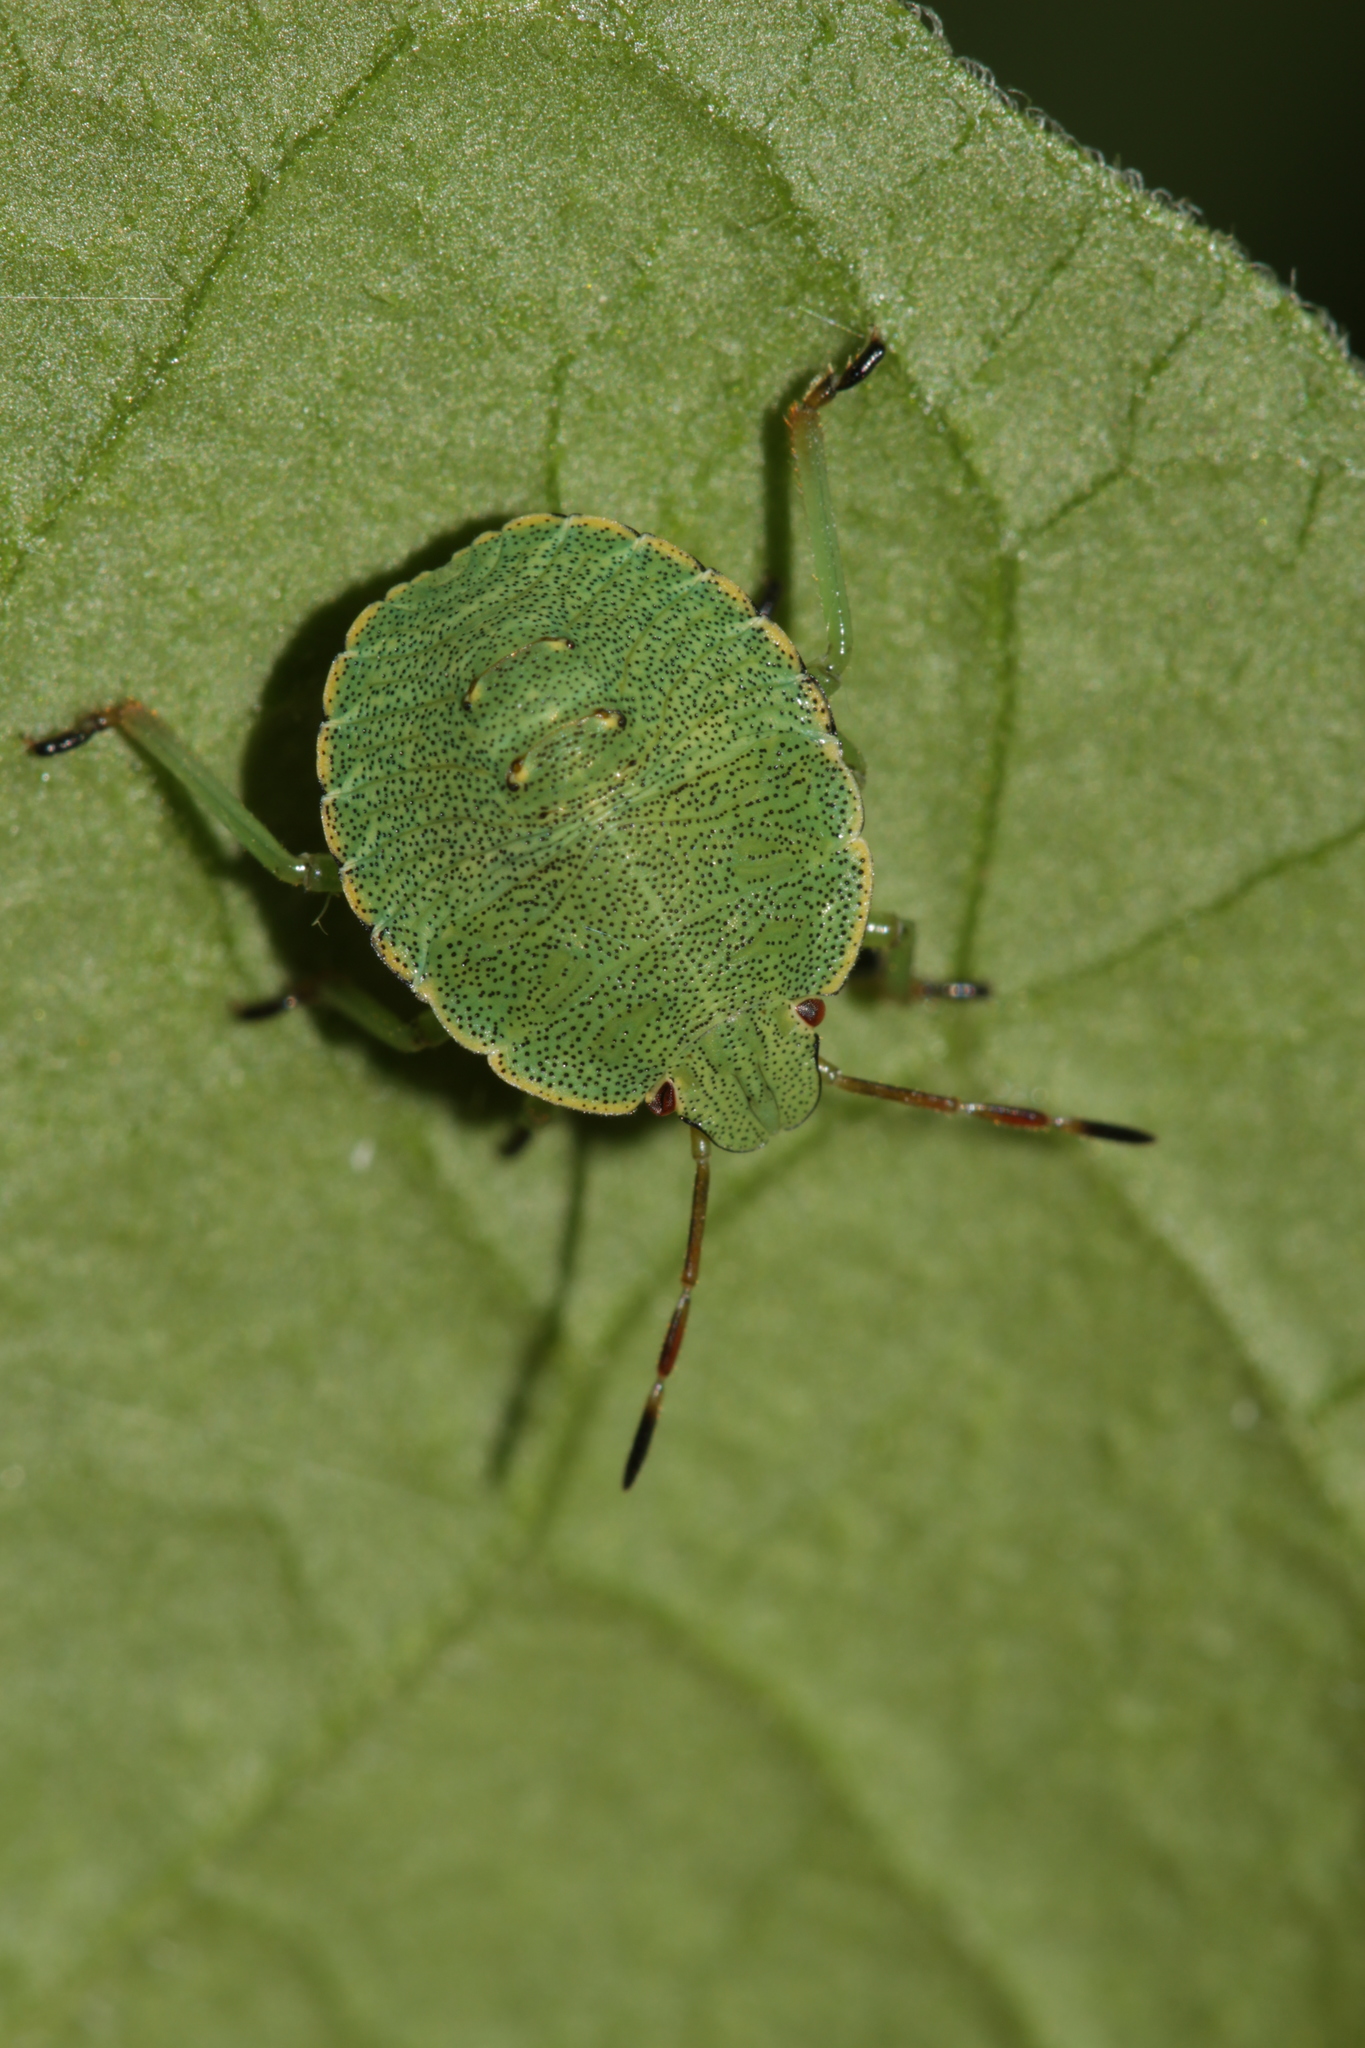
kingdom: Animalia
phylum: Arthropoda
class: Insecta
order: Hemiptera
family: Pentatomidae
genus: Palomena
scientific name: Palomena prasina
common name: Green shieldbug
